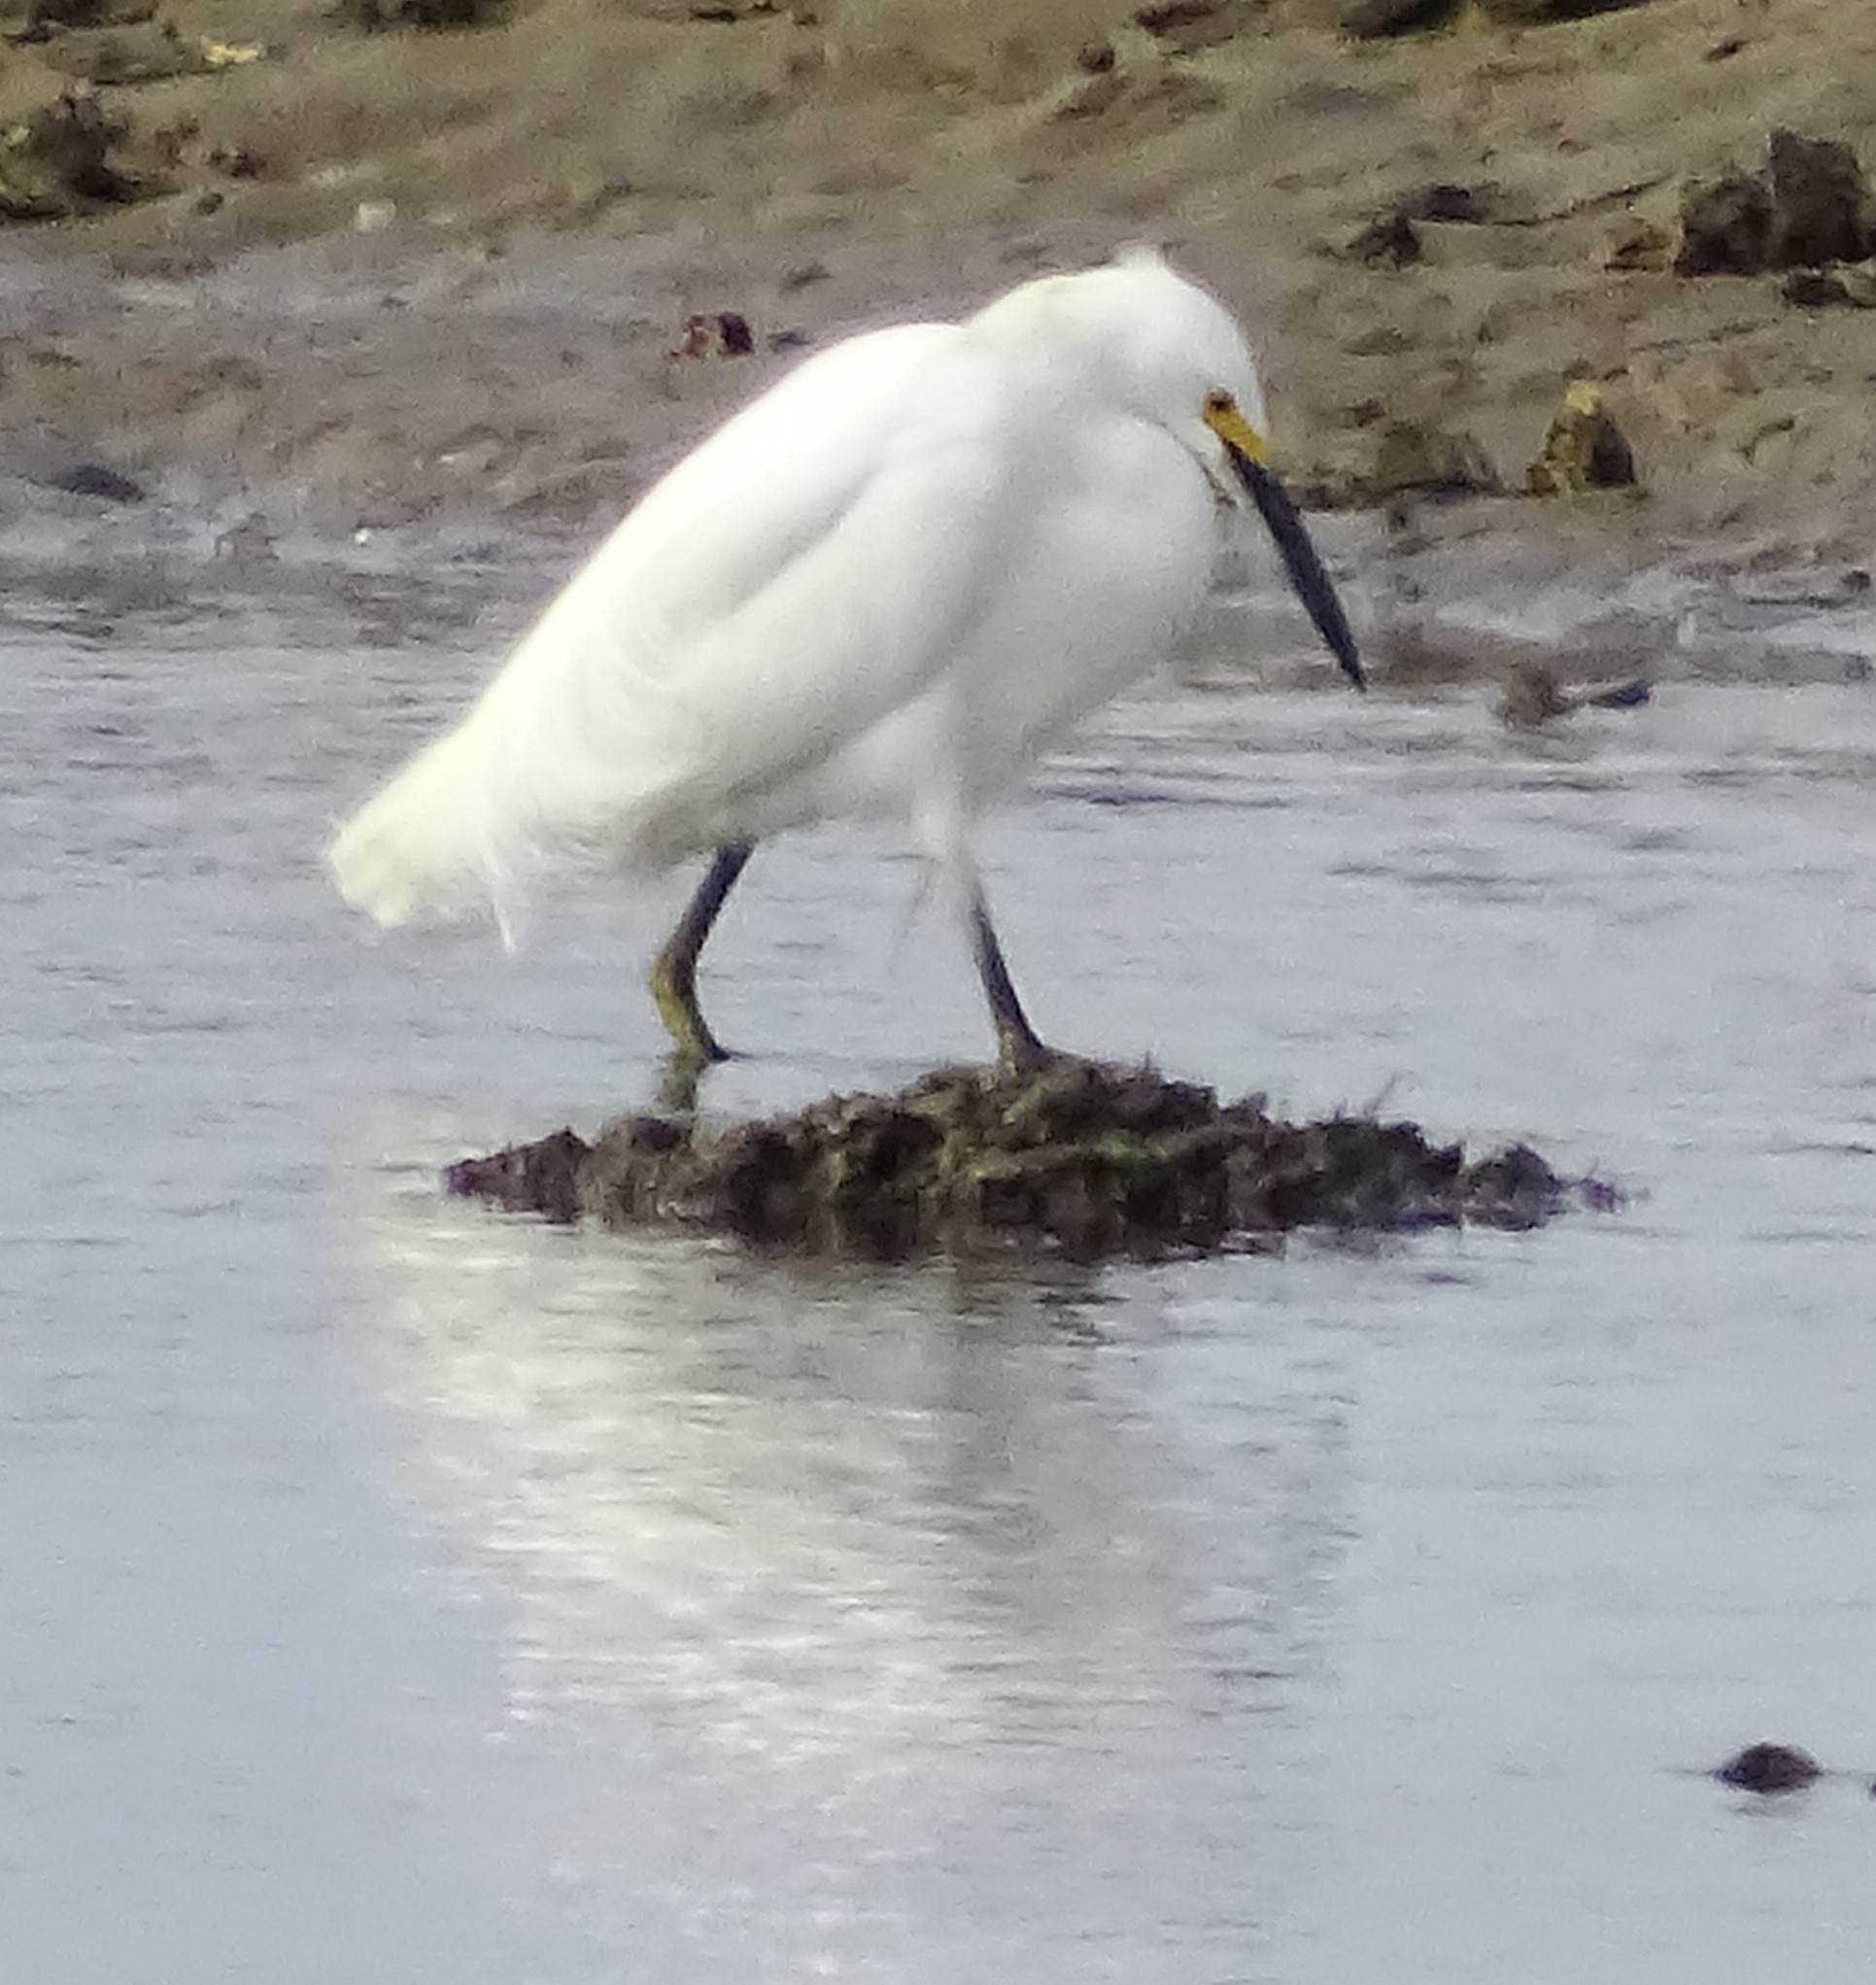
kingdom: Animalia
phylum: Chordata
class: Aves
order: Pelecaniformes
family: Ardeidae
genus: Egretta
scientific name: Egretta thula
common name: Snowy egret
